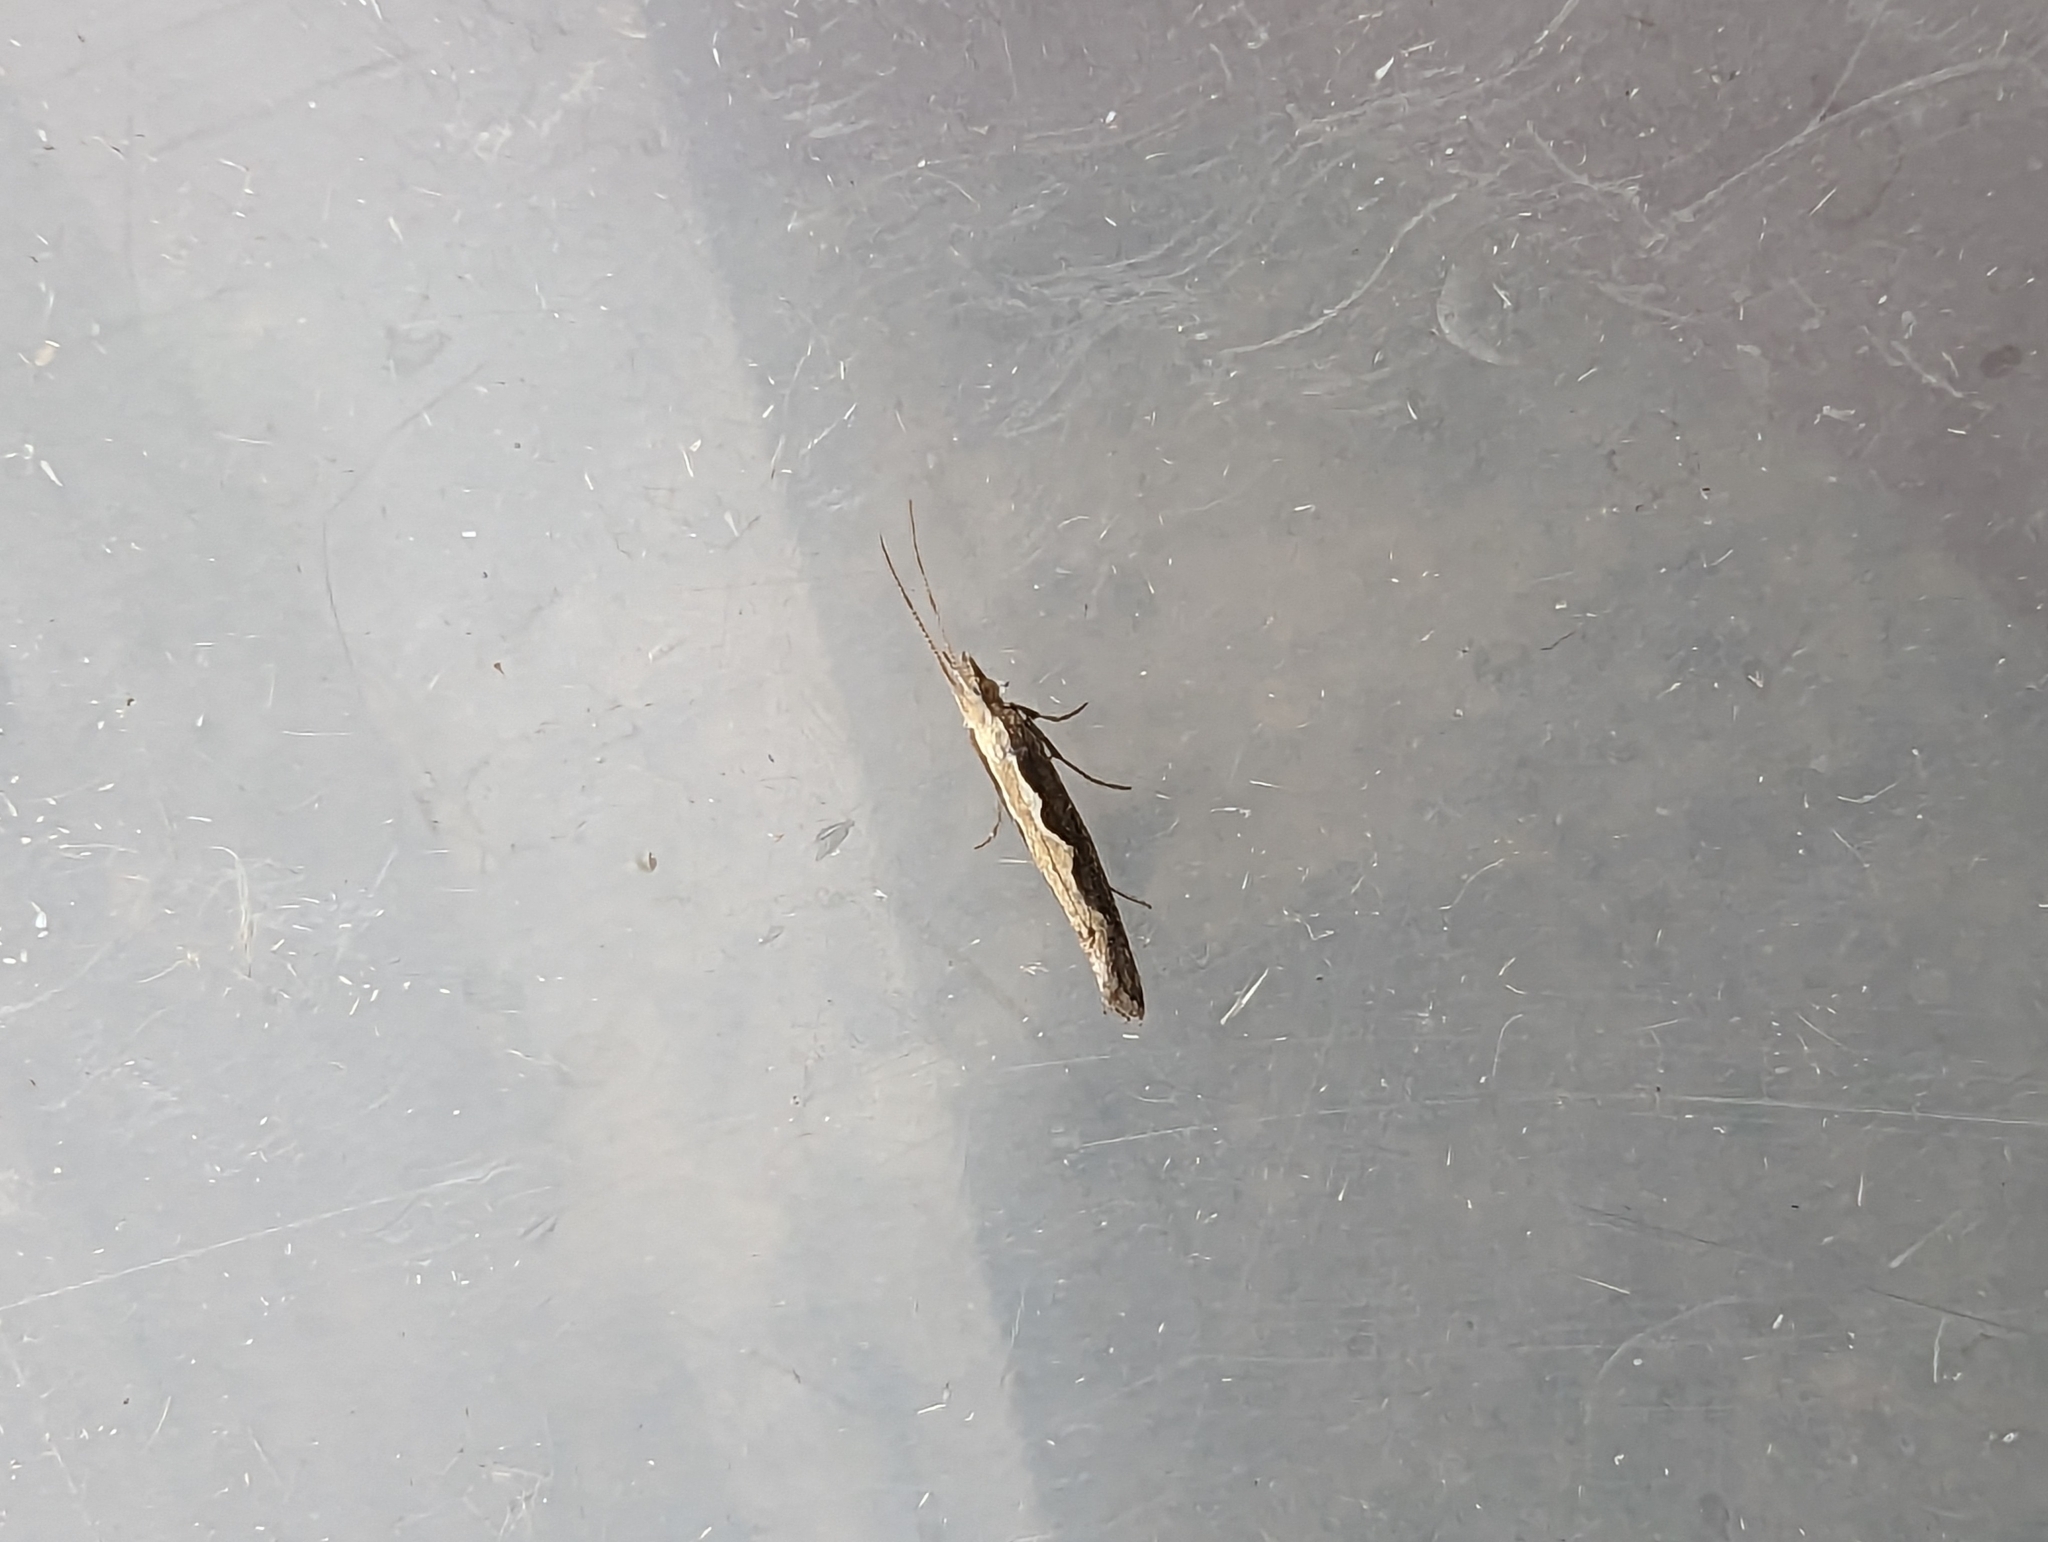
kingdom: Animalia
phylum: Arthropoda
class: Insecta
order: Lepidoptera
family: Plutellidae
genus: Plutella
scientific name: Plutella xylostella
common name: Diamond-back moth
